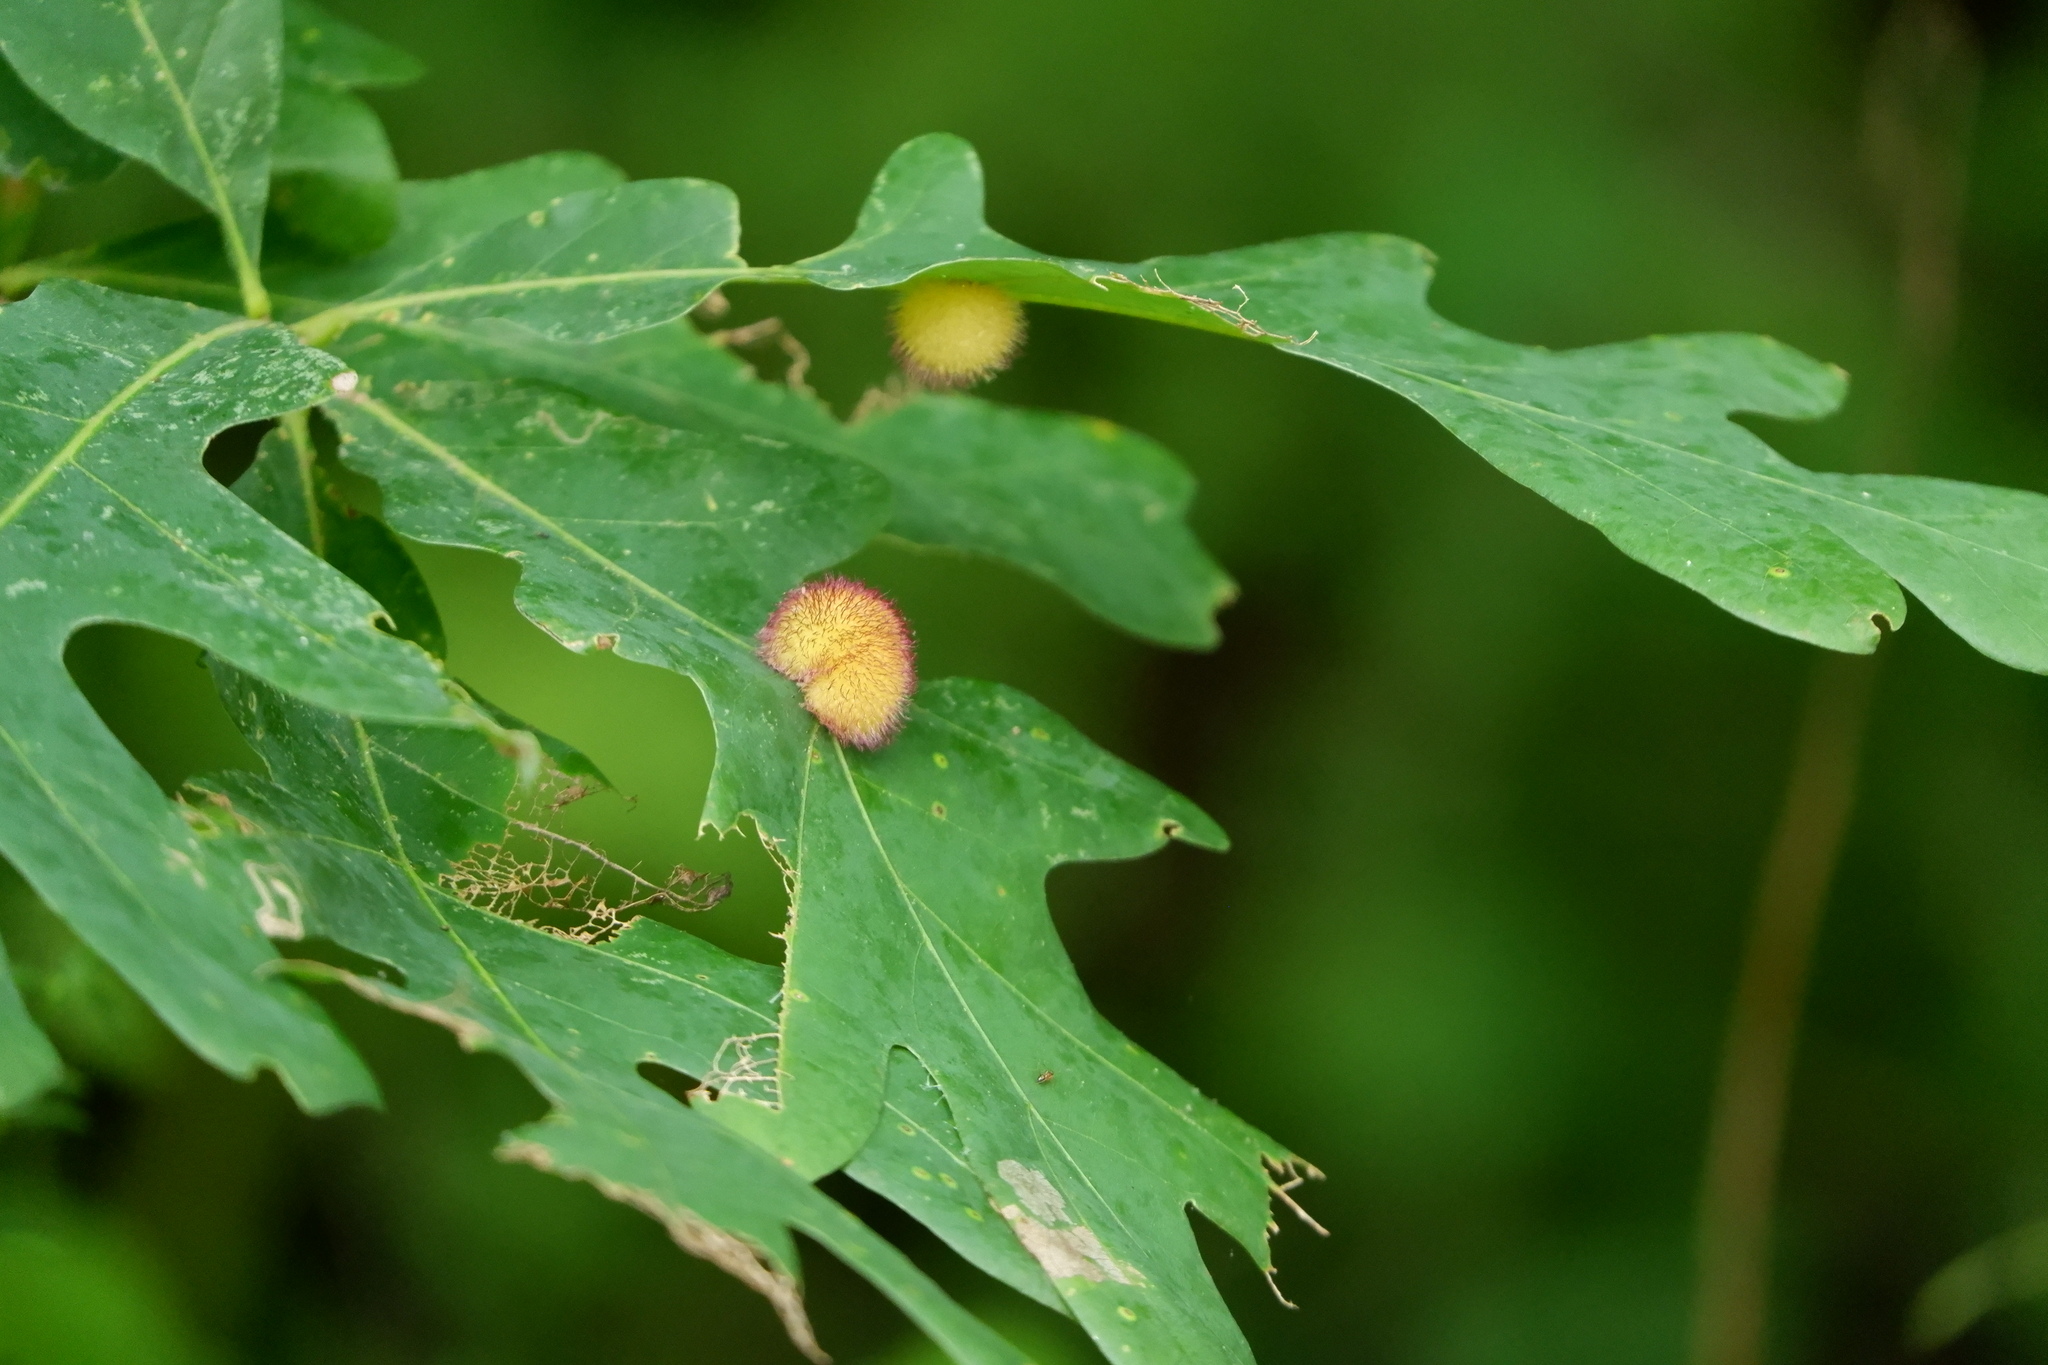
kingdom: Animalia
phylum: Arthropoda
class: Insecta
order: Hymenoptera
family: Cynipidae
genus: Acraspis
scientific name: Acraspis erinacei
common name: Hedgehog gall wasp
